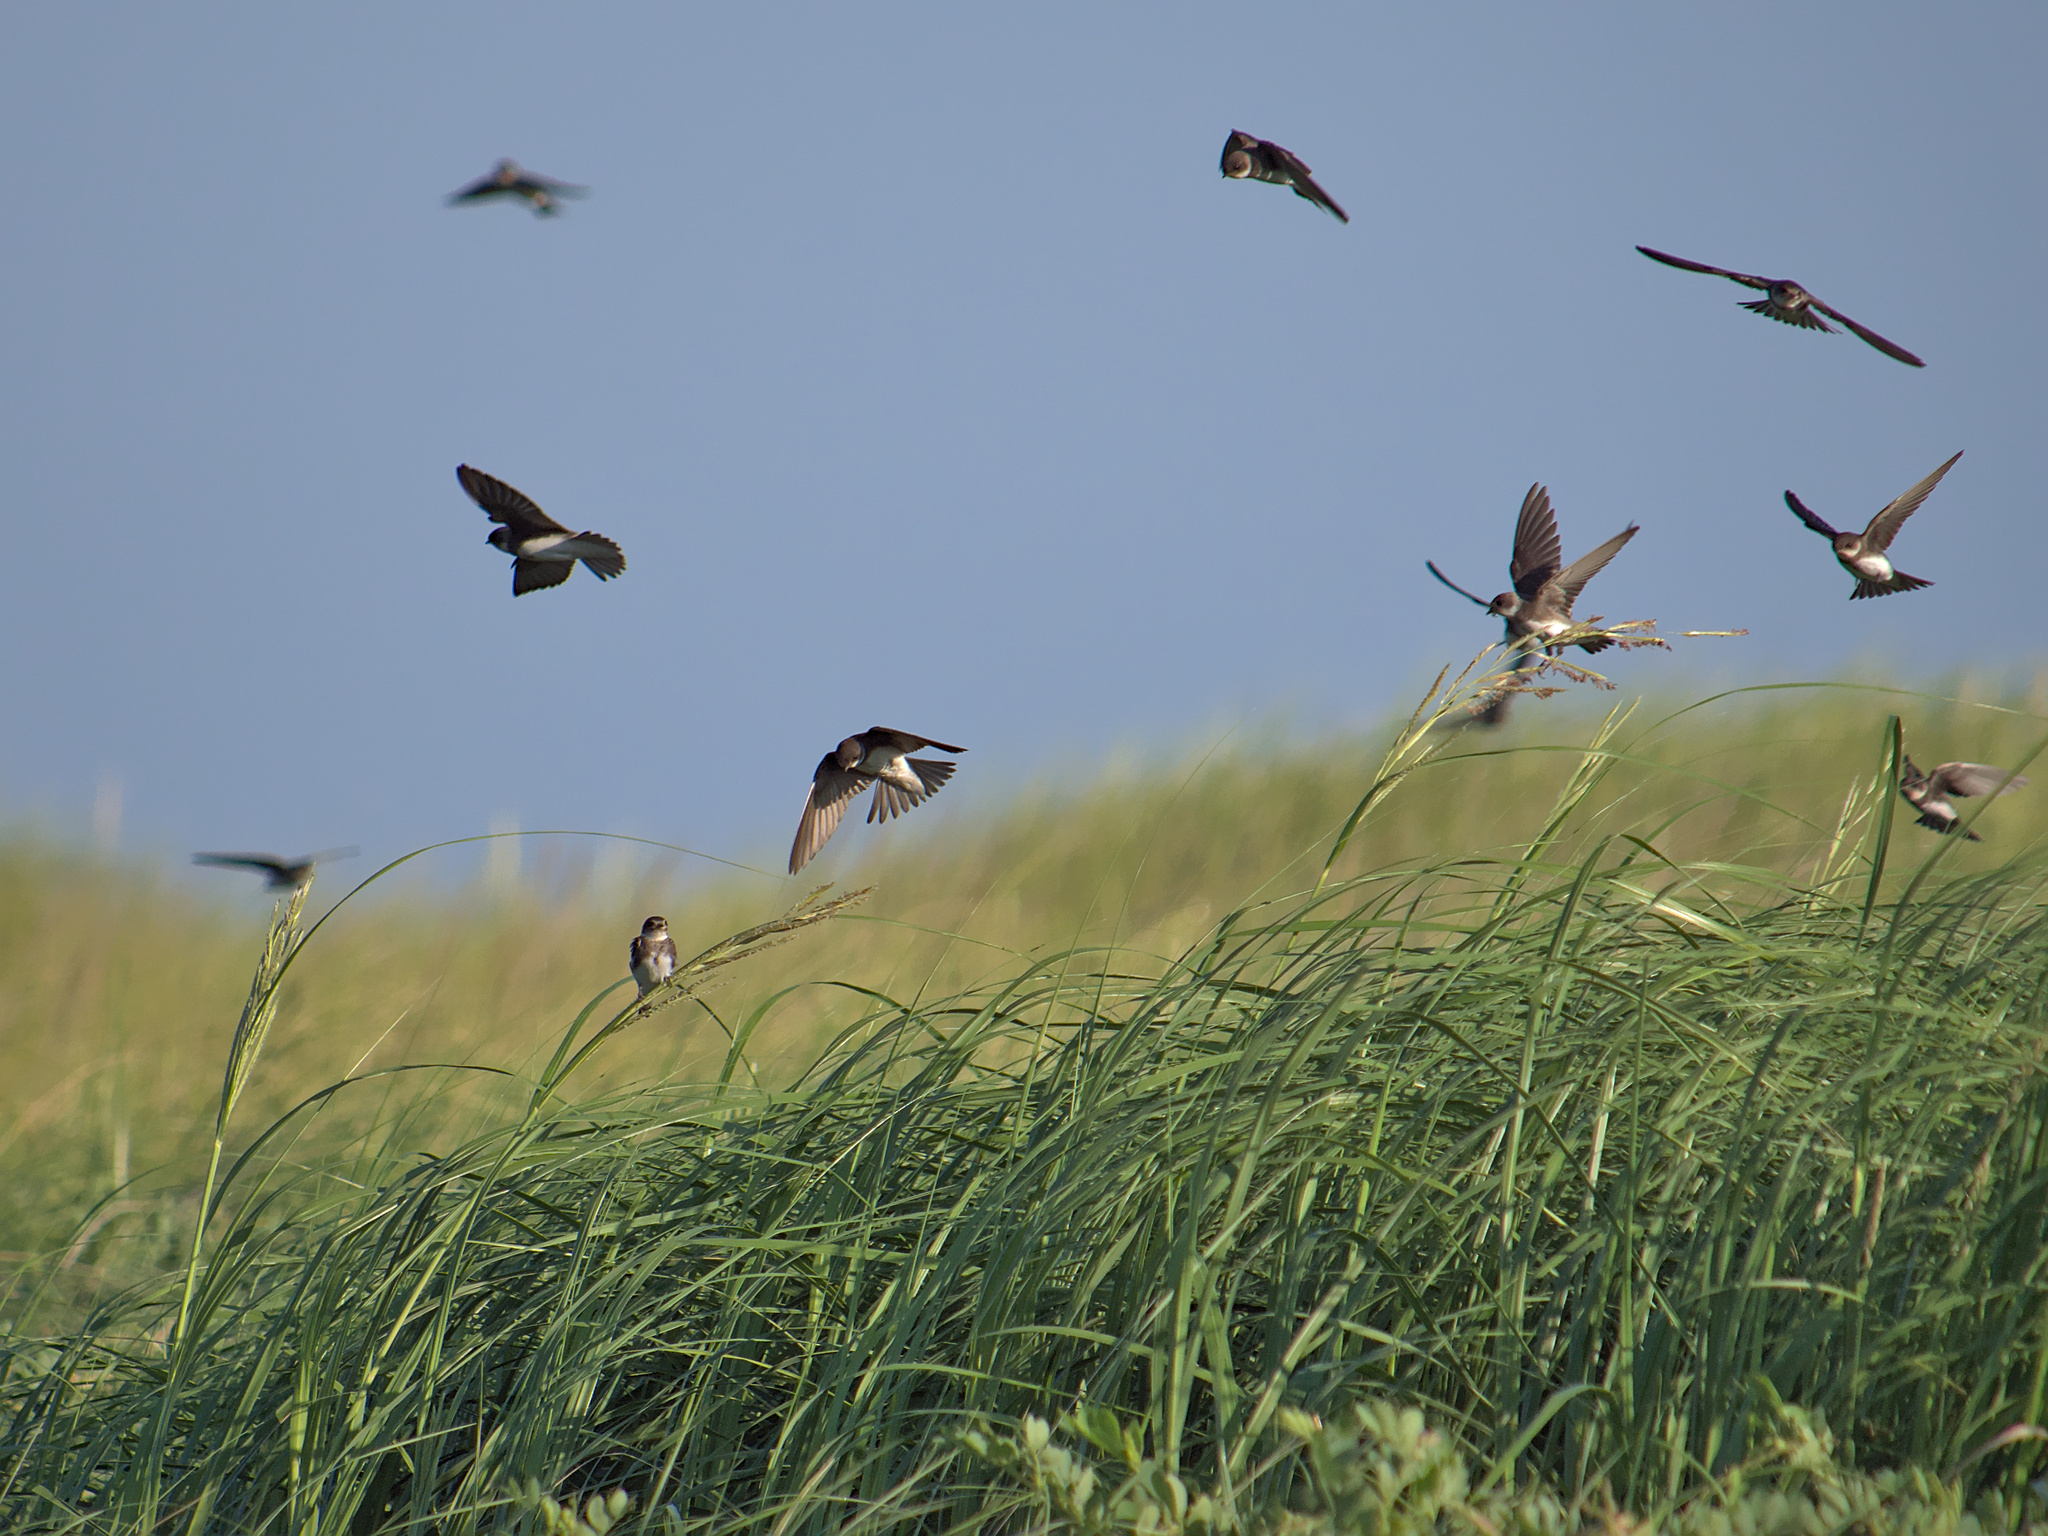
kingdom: Animalia
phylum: Chordata
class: Aves
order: Passeriformes
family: Hirundinidae
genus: Riparia
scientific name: Riparia riparia
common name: Sand martin
